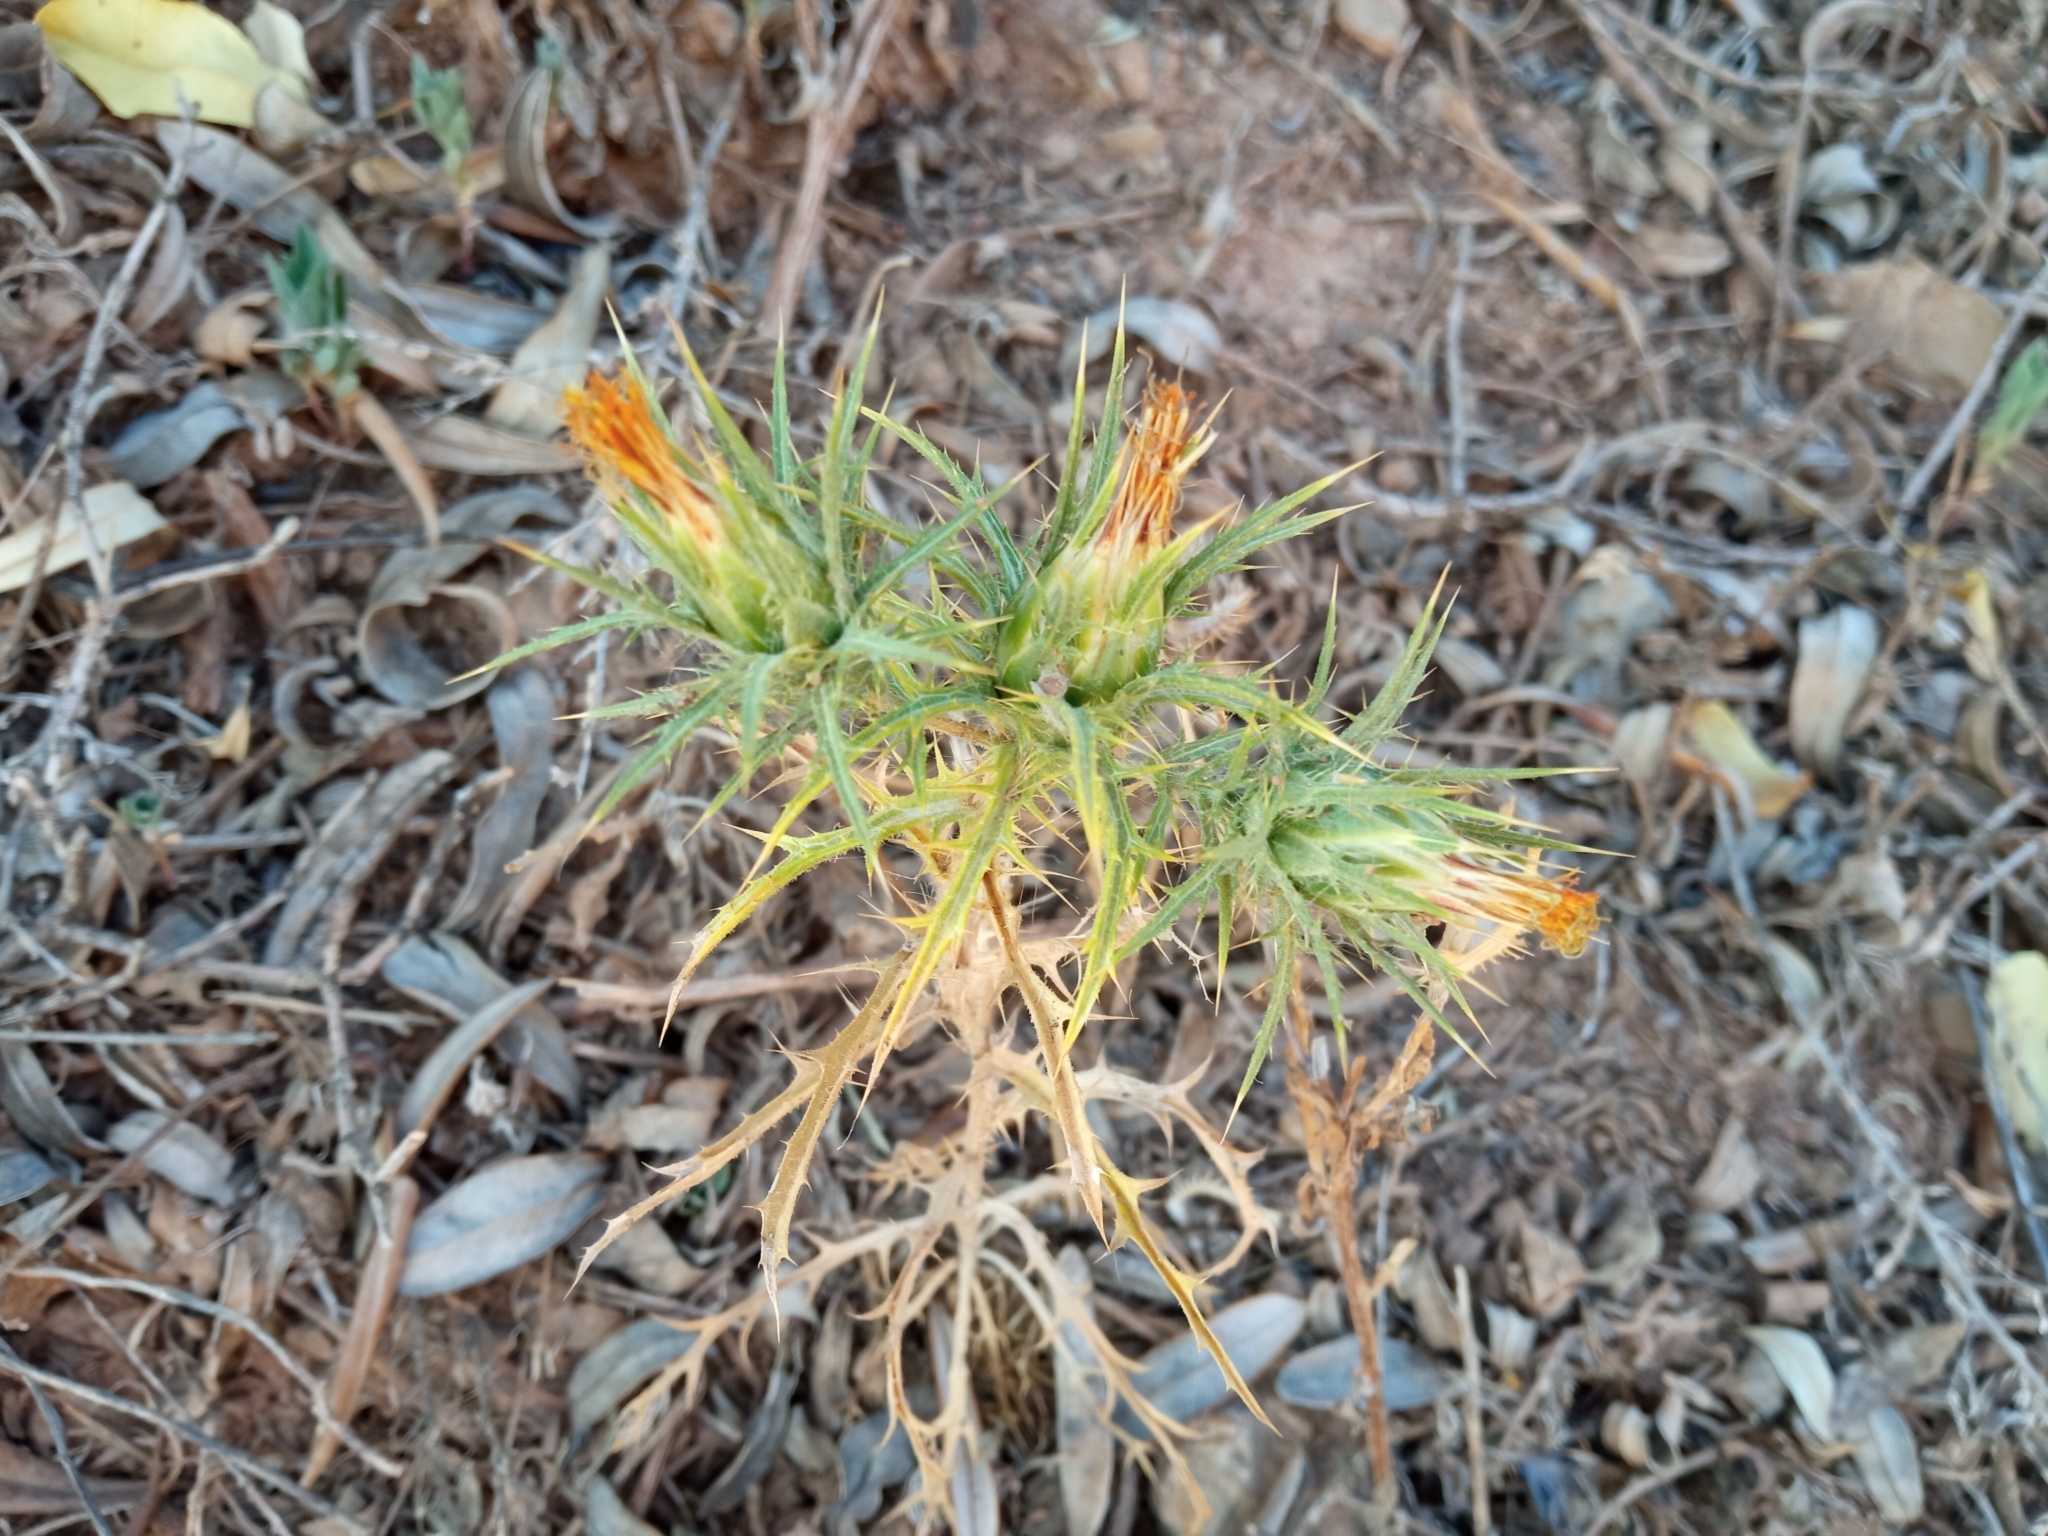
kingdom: Plantae
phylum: Tracheophyta
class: Magnoliopsida
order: Asterales
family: Asteraceae
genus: Carthamus
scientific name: Carthamus lanatus
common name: Downy safflower
